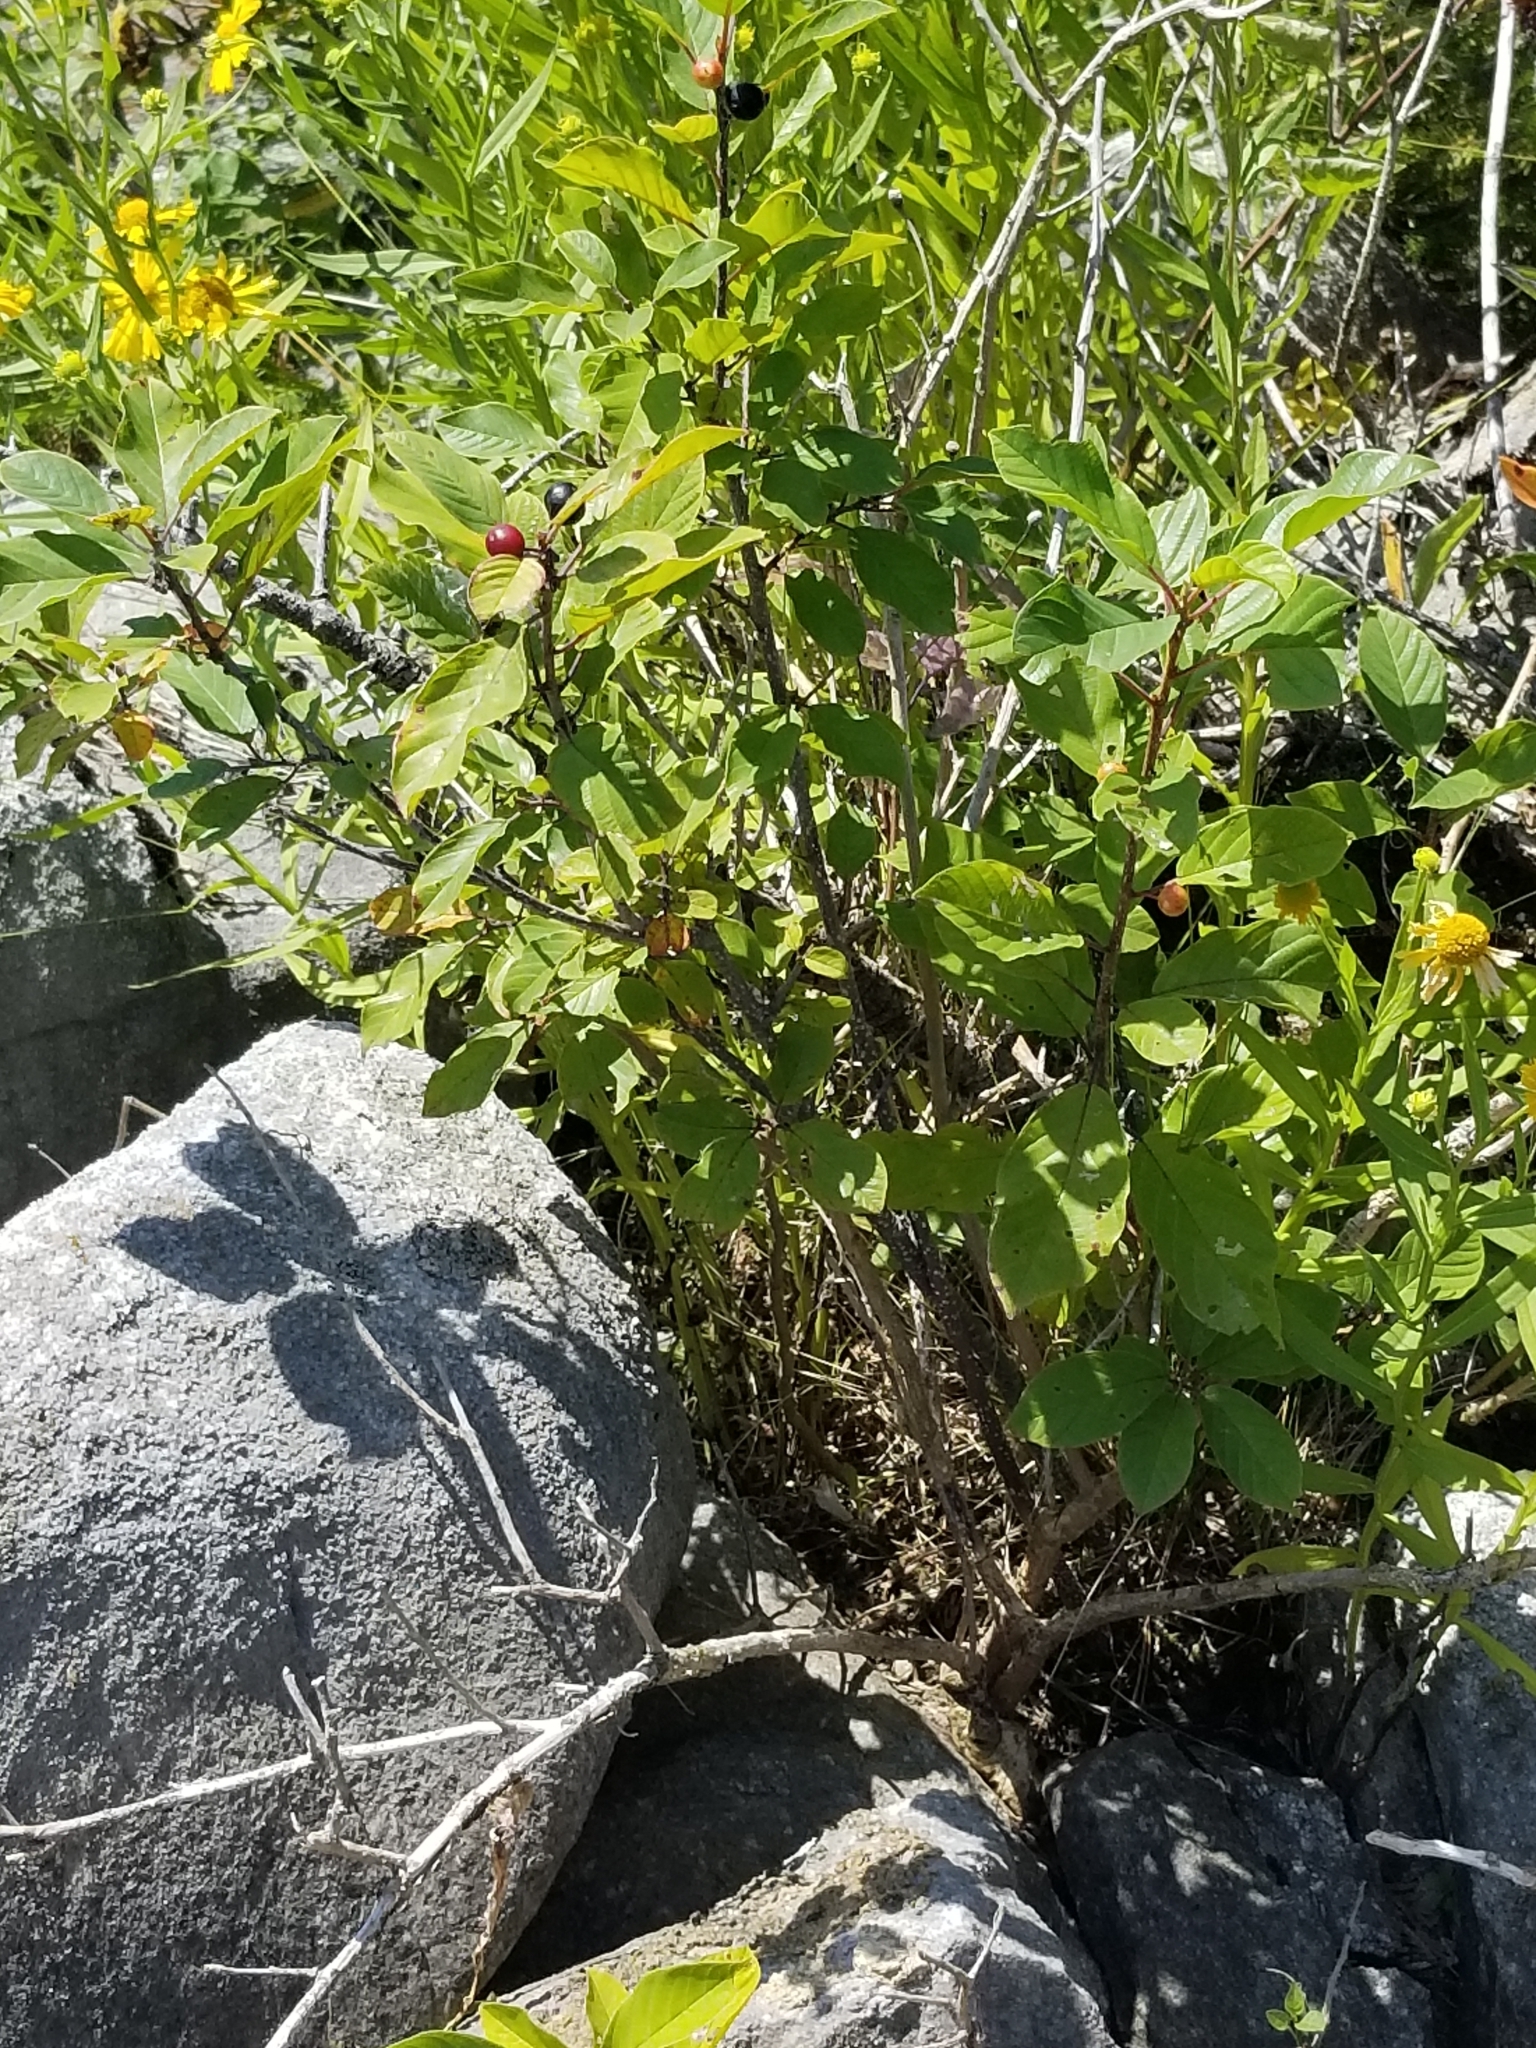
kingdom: Plantae
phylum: Tracheophyta
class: Magnoliopsida
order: Rosales
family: Rhamnaceae
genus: Frangula
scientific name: Frangula alnus
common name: Alder buckthorn
